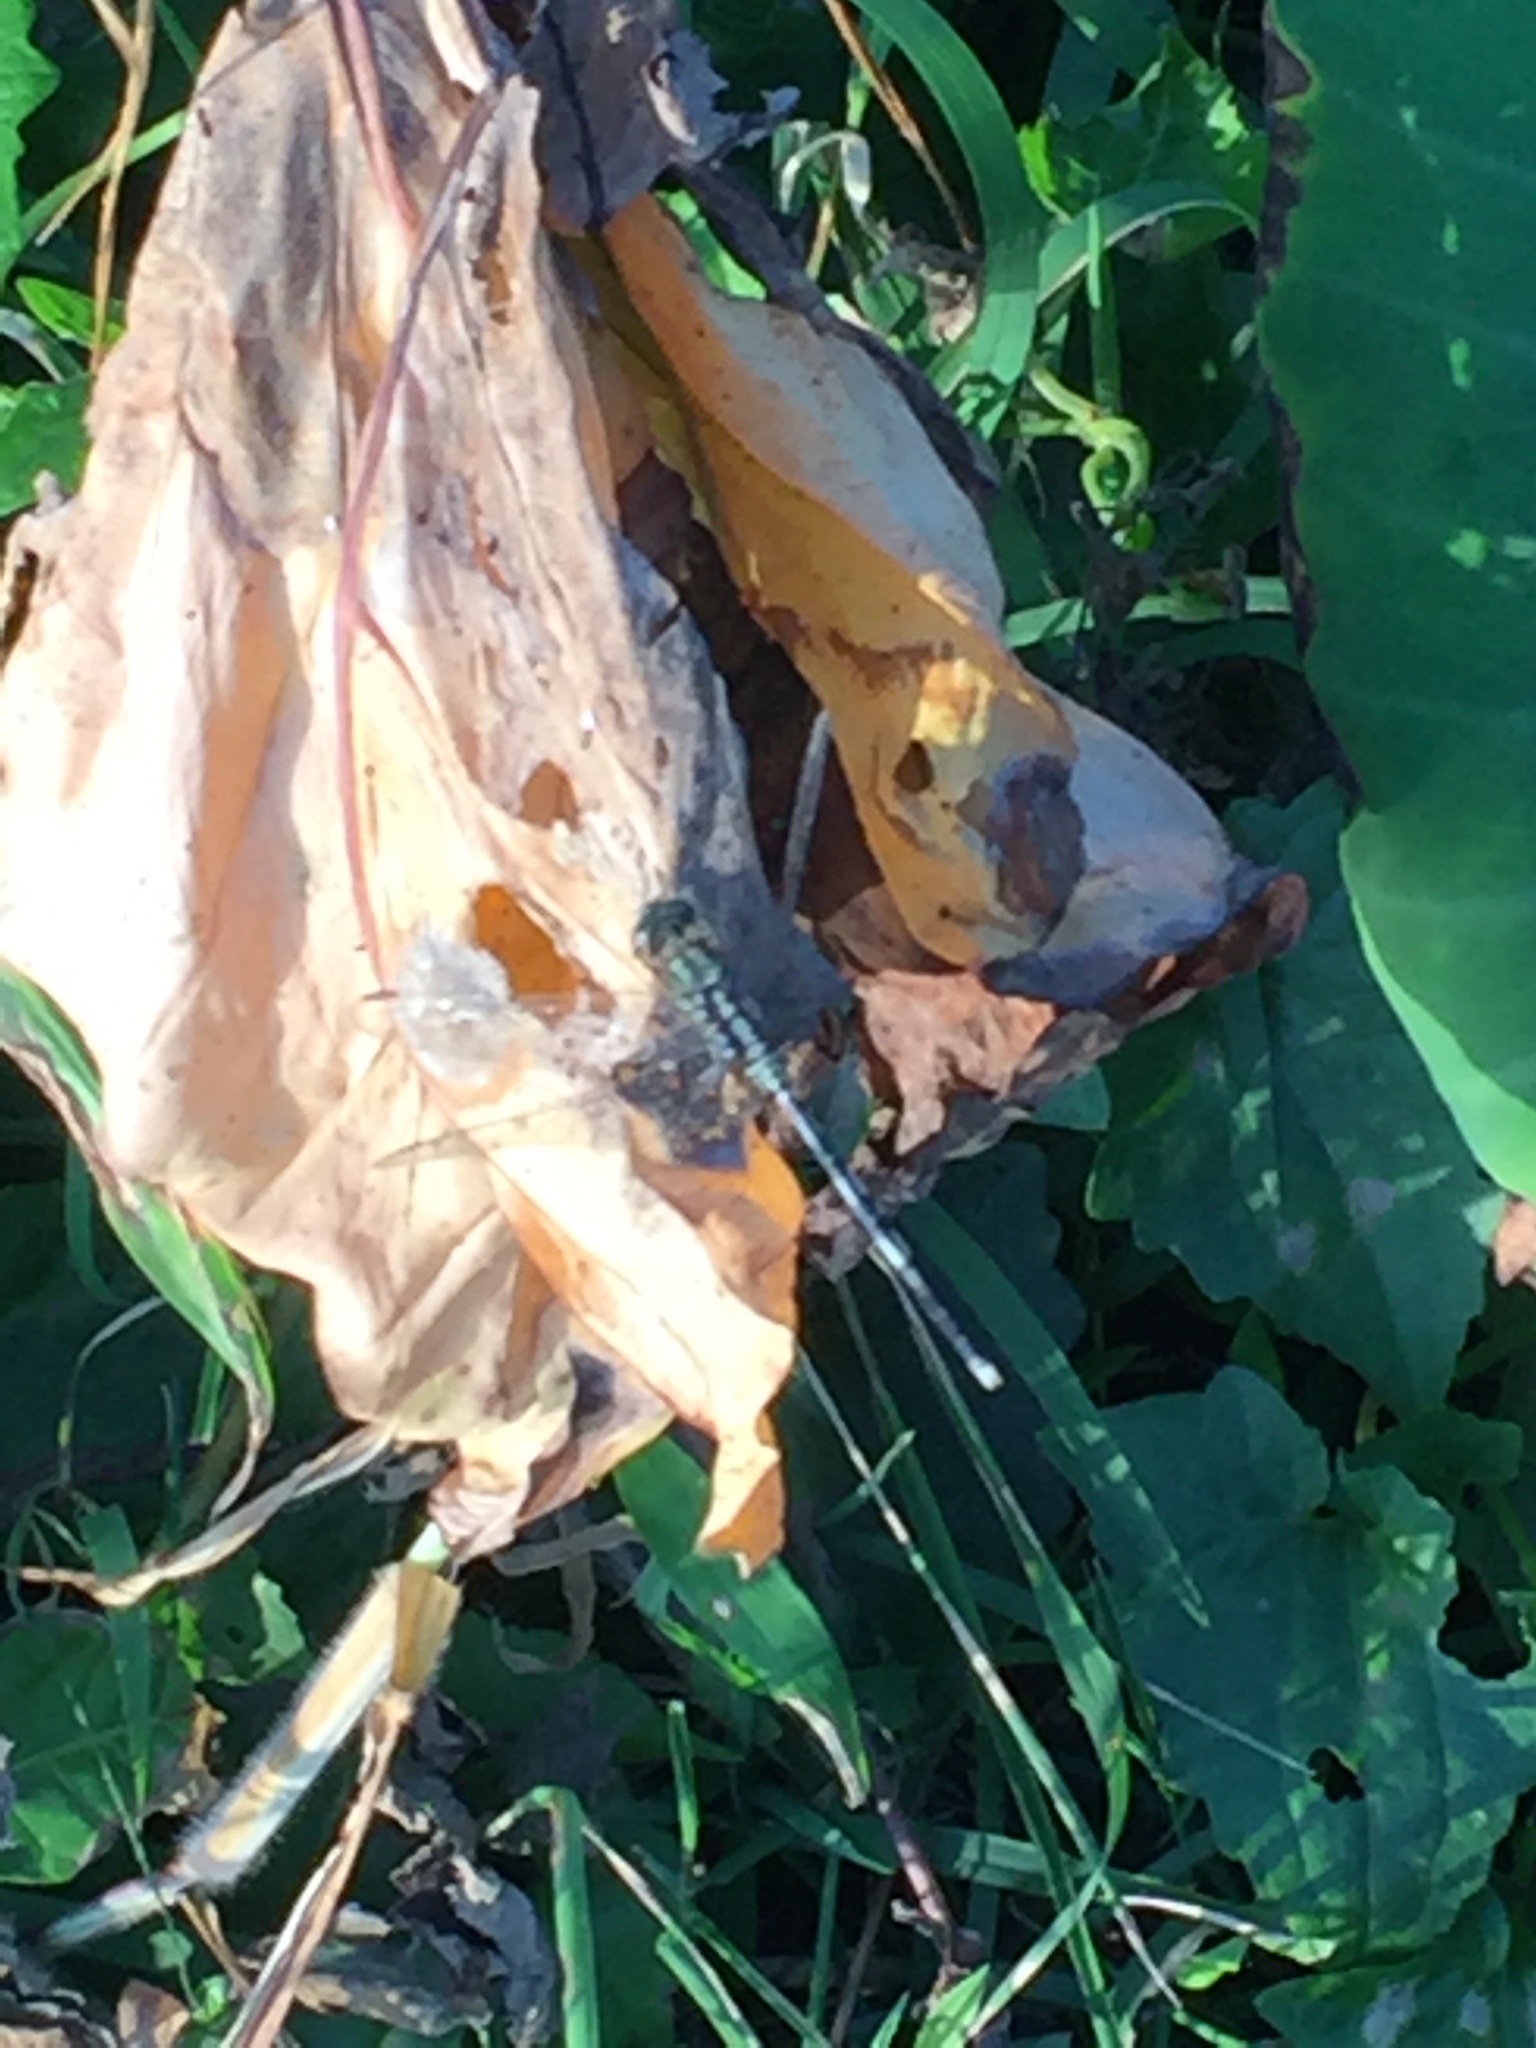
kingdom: Animalia
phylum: Arthropoda
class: Insecta
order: Odonata
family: Libellulidae
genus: Orthetrum
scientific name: Orthetrum sabina
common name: Slender skimmer
